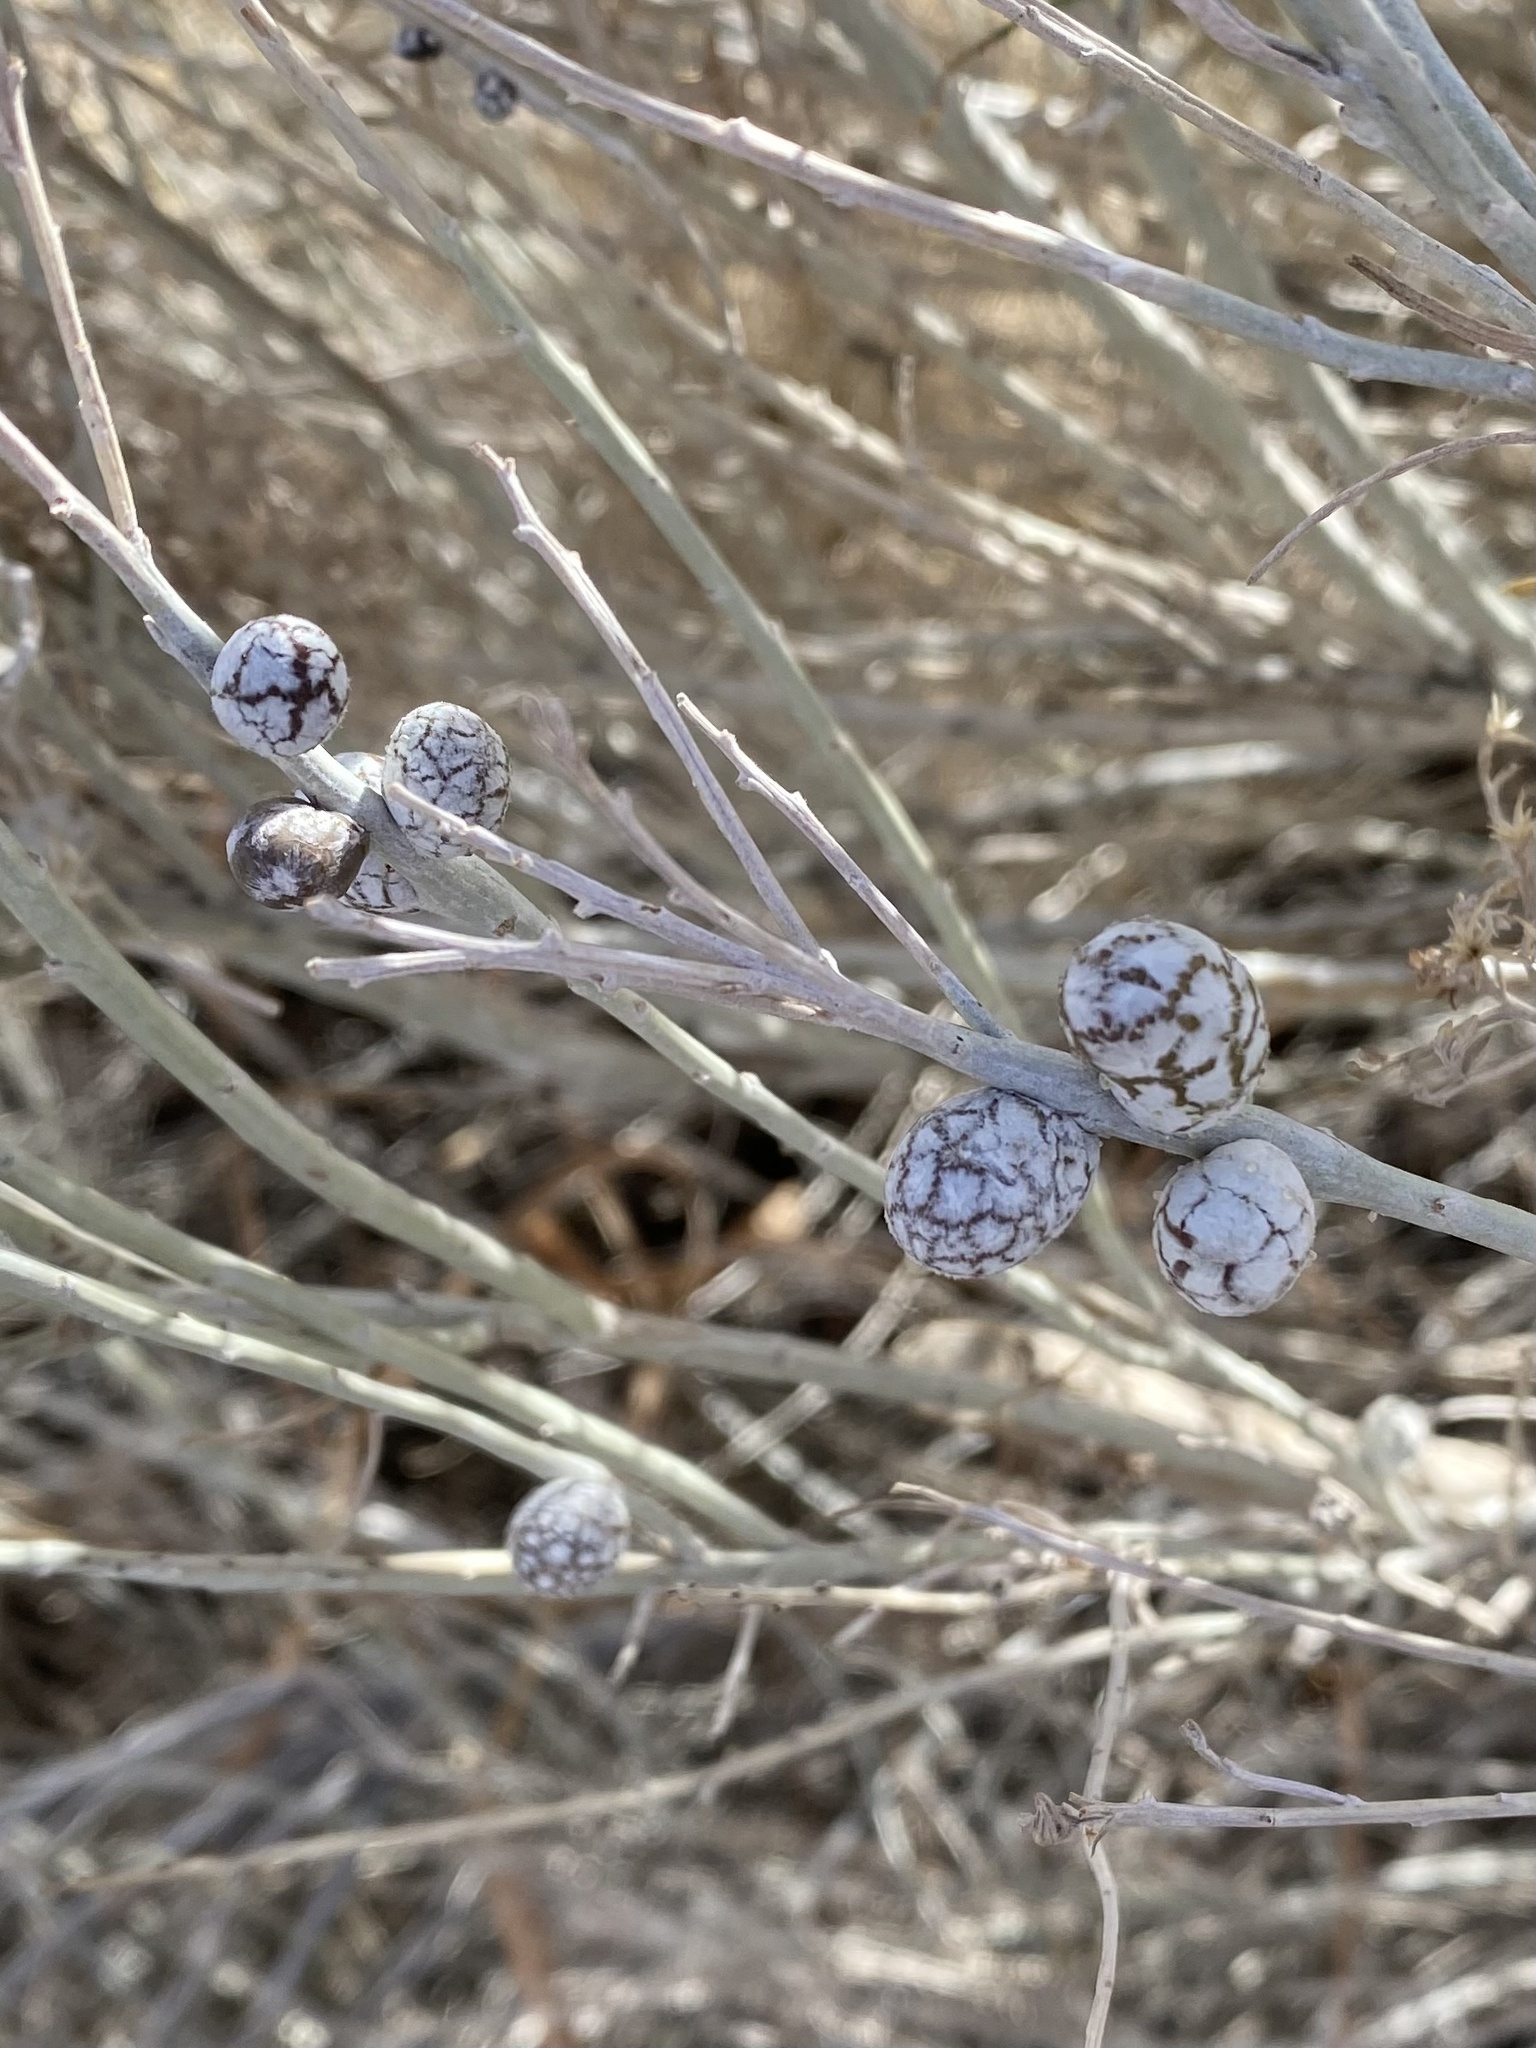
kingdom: Animalia
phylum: Arthropoda
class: Insecta
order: Diptera
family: Tephritidae
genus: Aciurina
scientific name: Aciurina trixa
